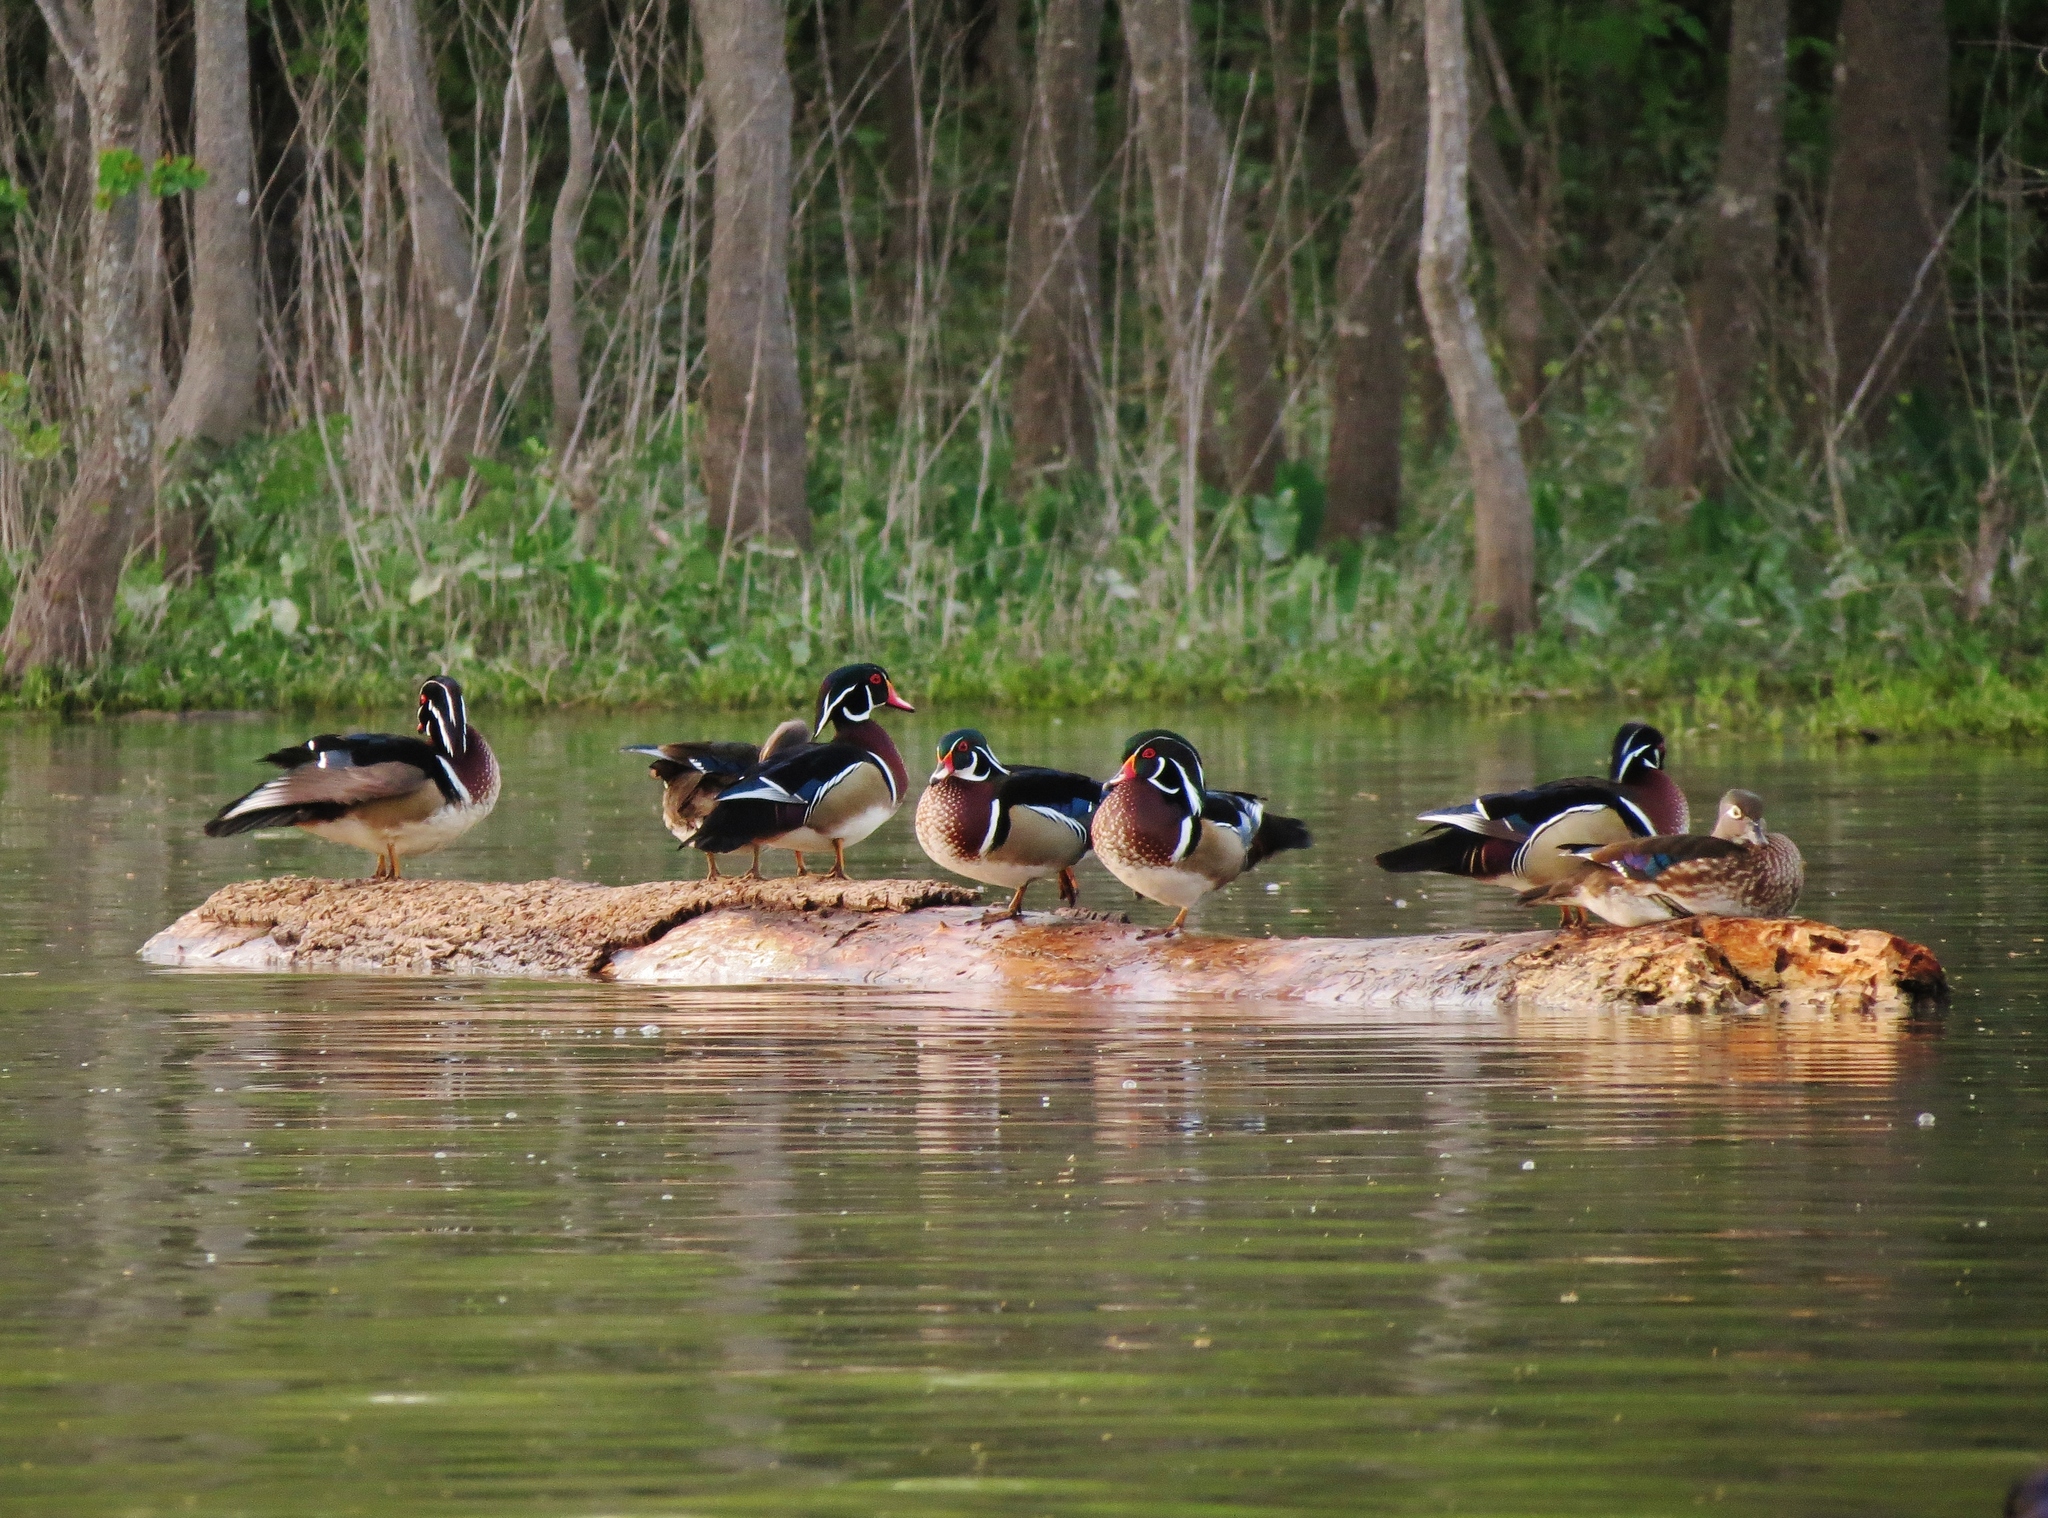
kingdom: Animalia
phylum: Chordata
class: Aves
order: Anseriformes
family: Anatidae
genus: Aix
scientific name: Aix sponsa
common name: Wood duck
